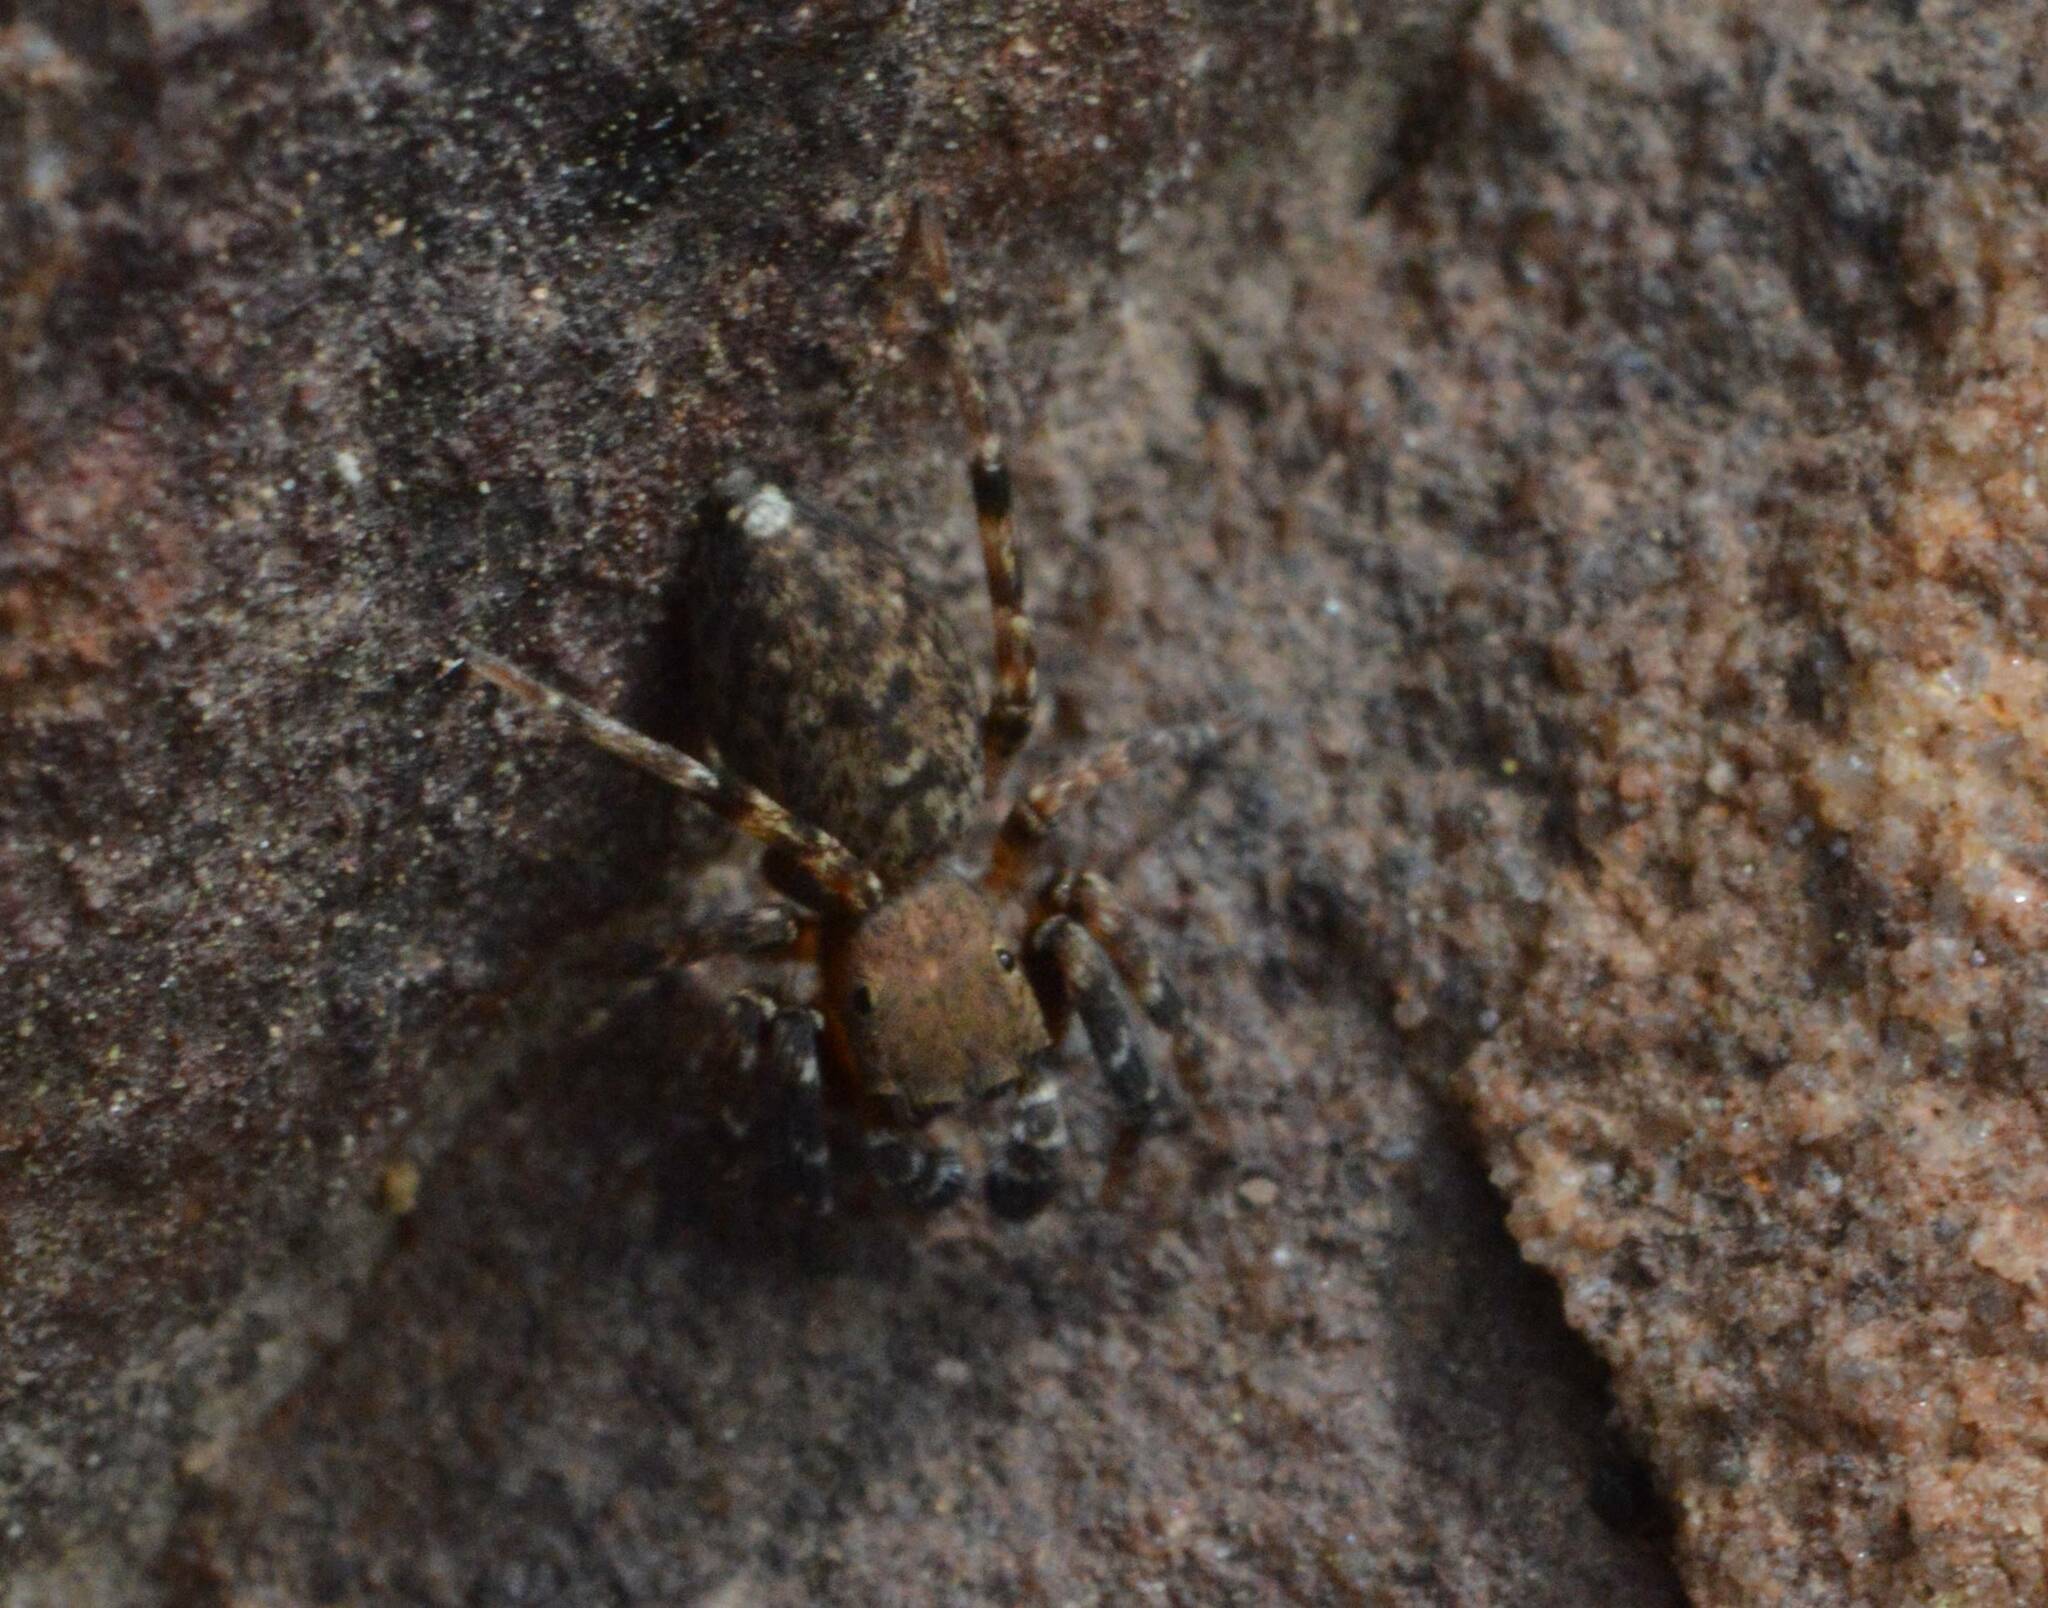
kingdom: Animalia
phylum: Arthropoda
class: Arachnida
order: Araneae
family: Salticidae
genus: Cyrba
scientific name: Cyrba algerina
